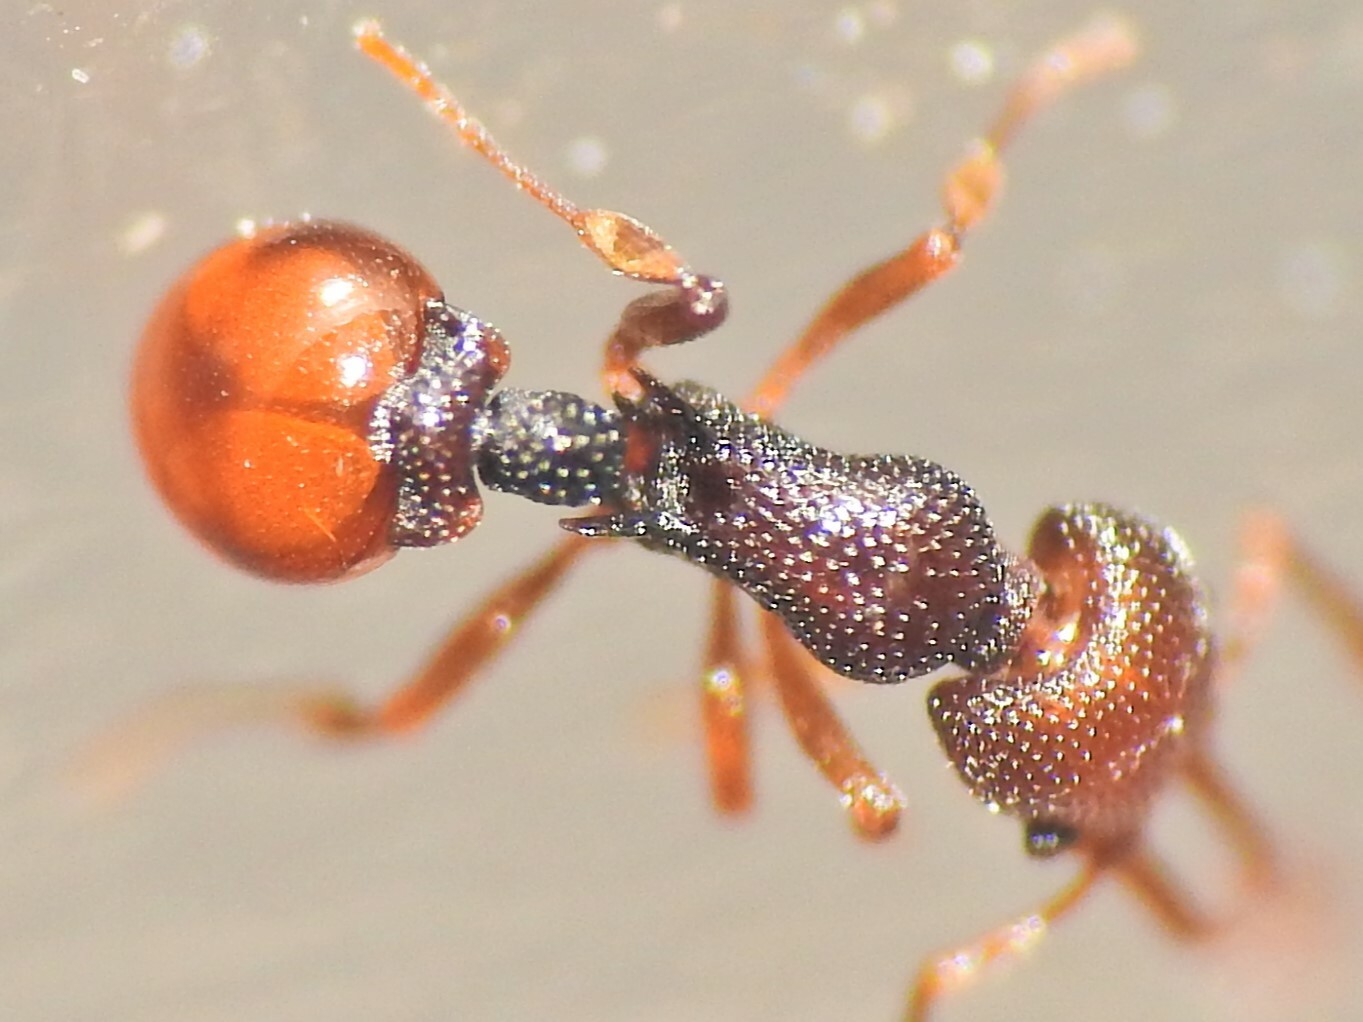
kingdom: Animalia
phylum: Arthropoda
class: Insecta
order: Hymenoptera
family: Formicidae
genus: Epopostruma
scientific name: Epopostruma
